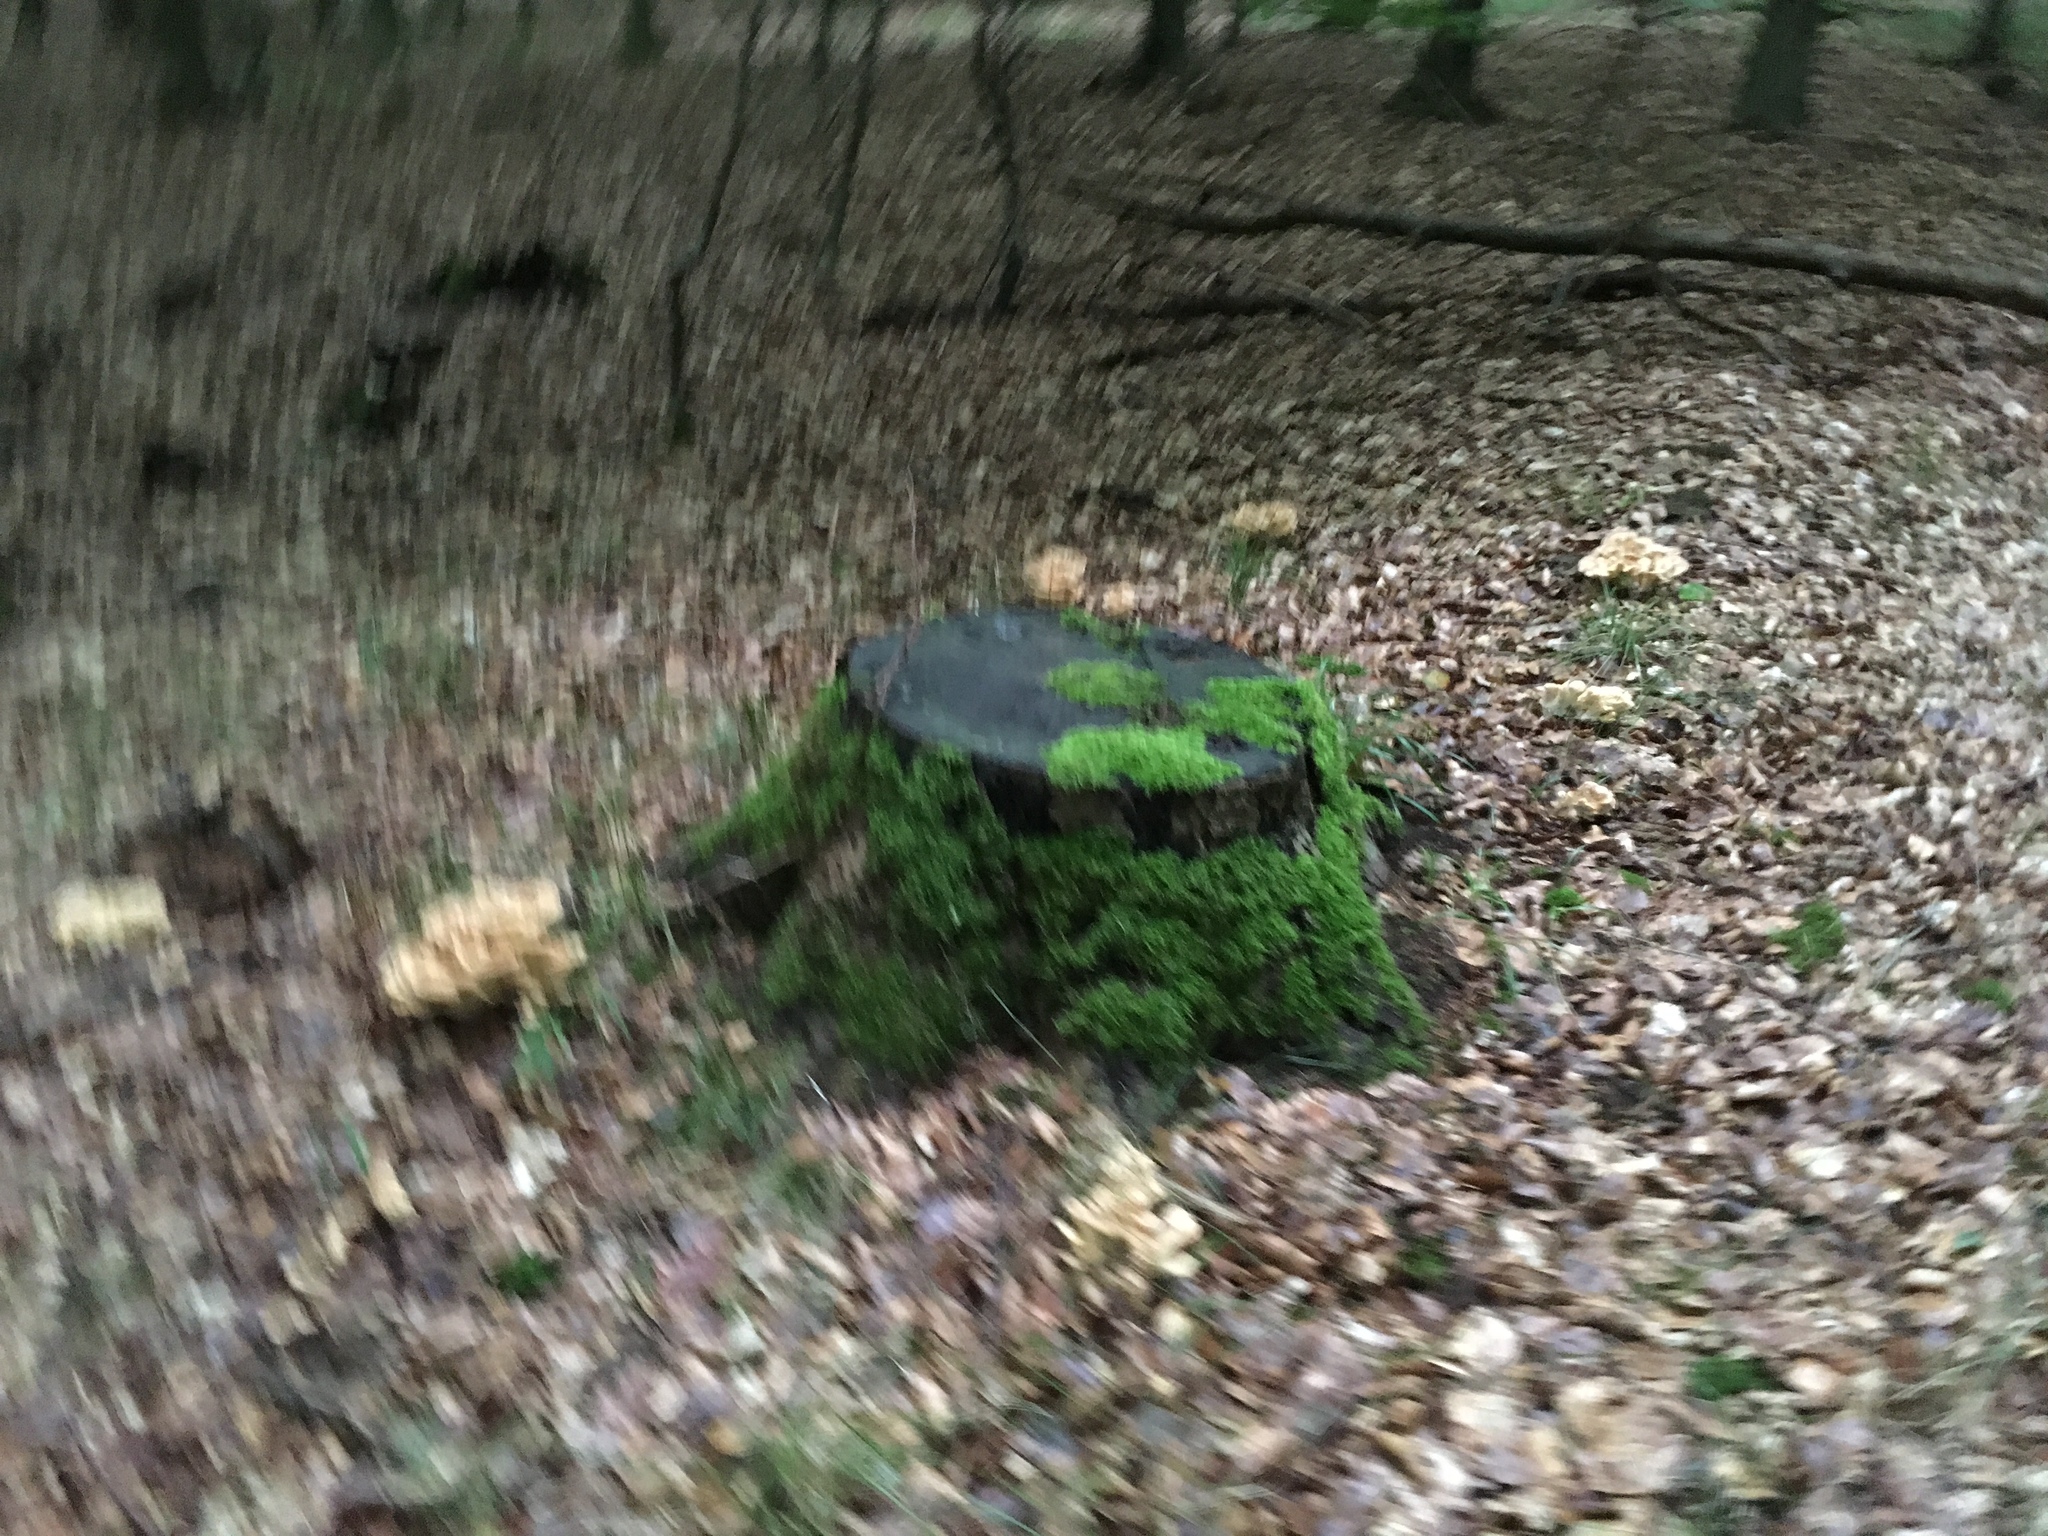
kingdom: Fungi
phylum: Basidiomycota
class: Agaricomycetes
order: Polyporales
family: Meripilaceae
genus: Meripilus
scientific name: Meripilus giganteus
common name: Giant polypore
